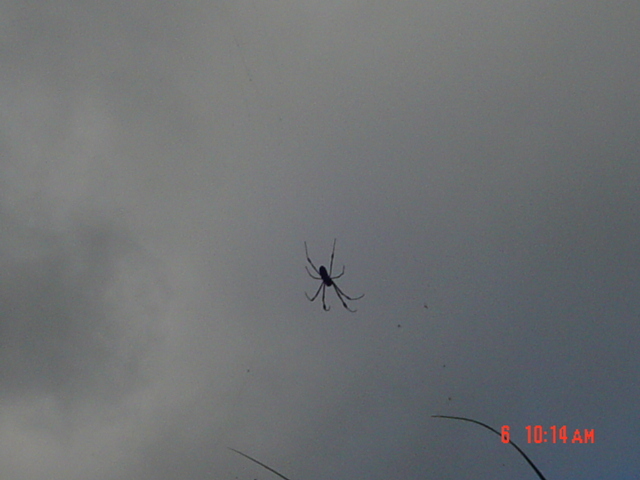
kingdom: Animalia
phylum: Arthropoda
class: Arachnida
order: Araneae
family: Araneidae
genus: Trichonephila
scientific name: Trichonephila clavipes
